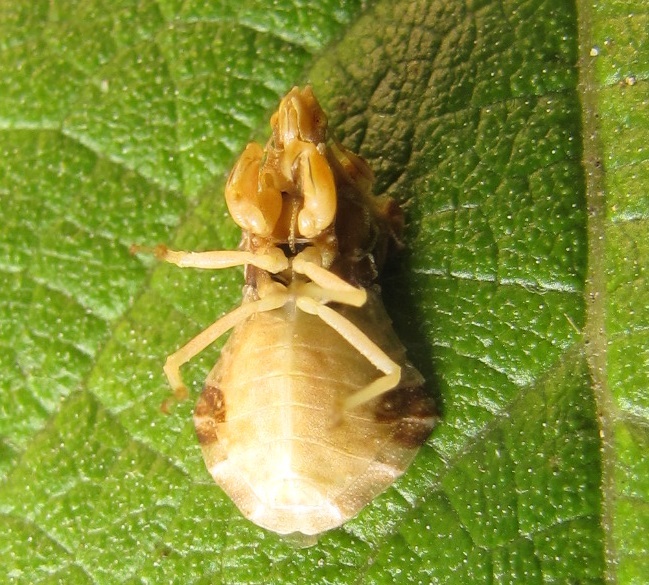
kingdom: Animalia
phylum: Arthropoda
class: Insecta
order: Hemiptera
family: Reduviidae
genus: Phymata
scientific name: Phymata fasciata
